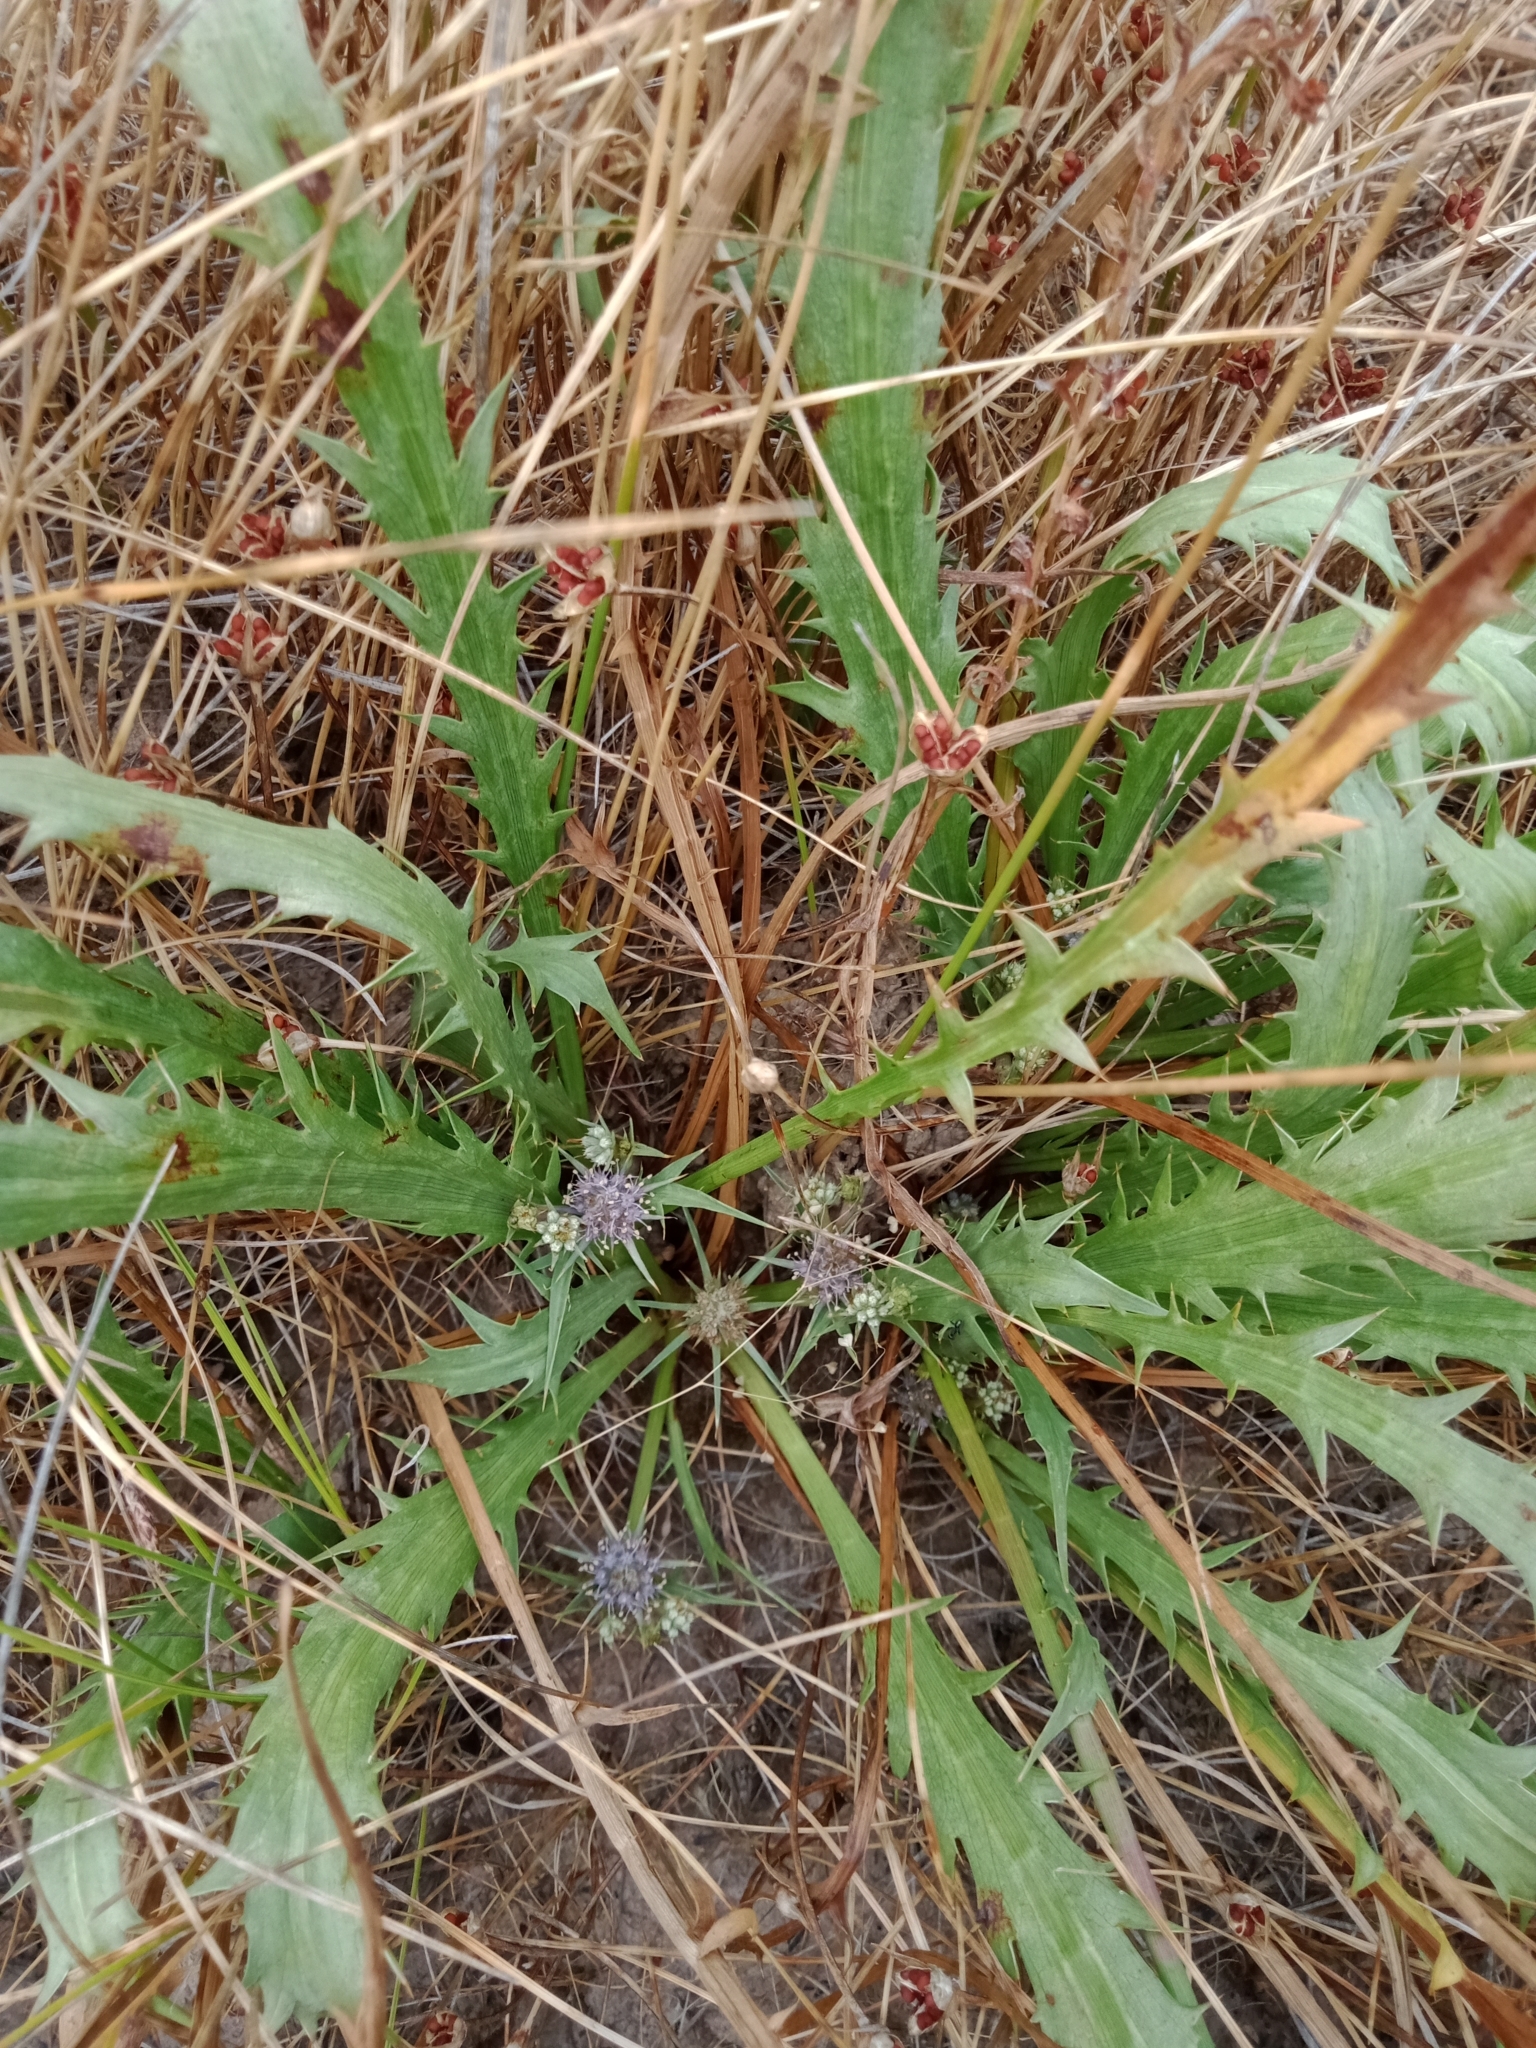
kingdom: Plantae
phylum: Tracheophyta
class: Magnoliopsida
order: Apiales
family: Apiaceae
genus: Eryngium
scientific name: Eryngium vesiculosum
